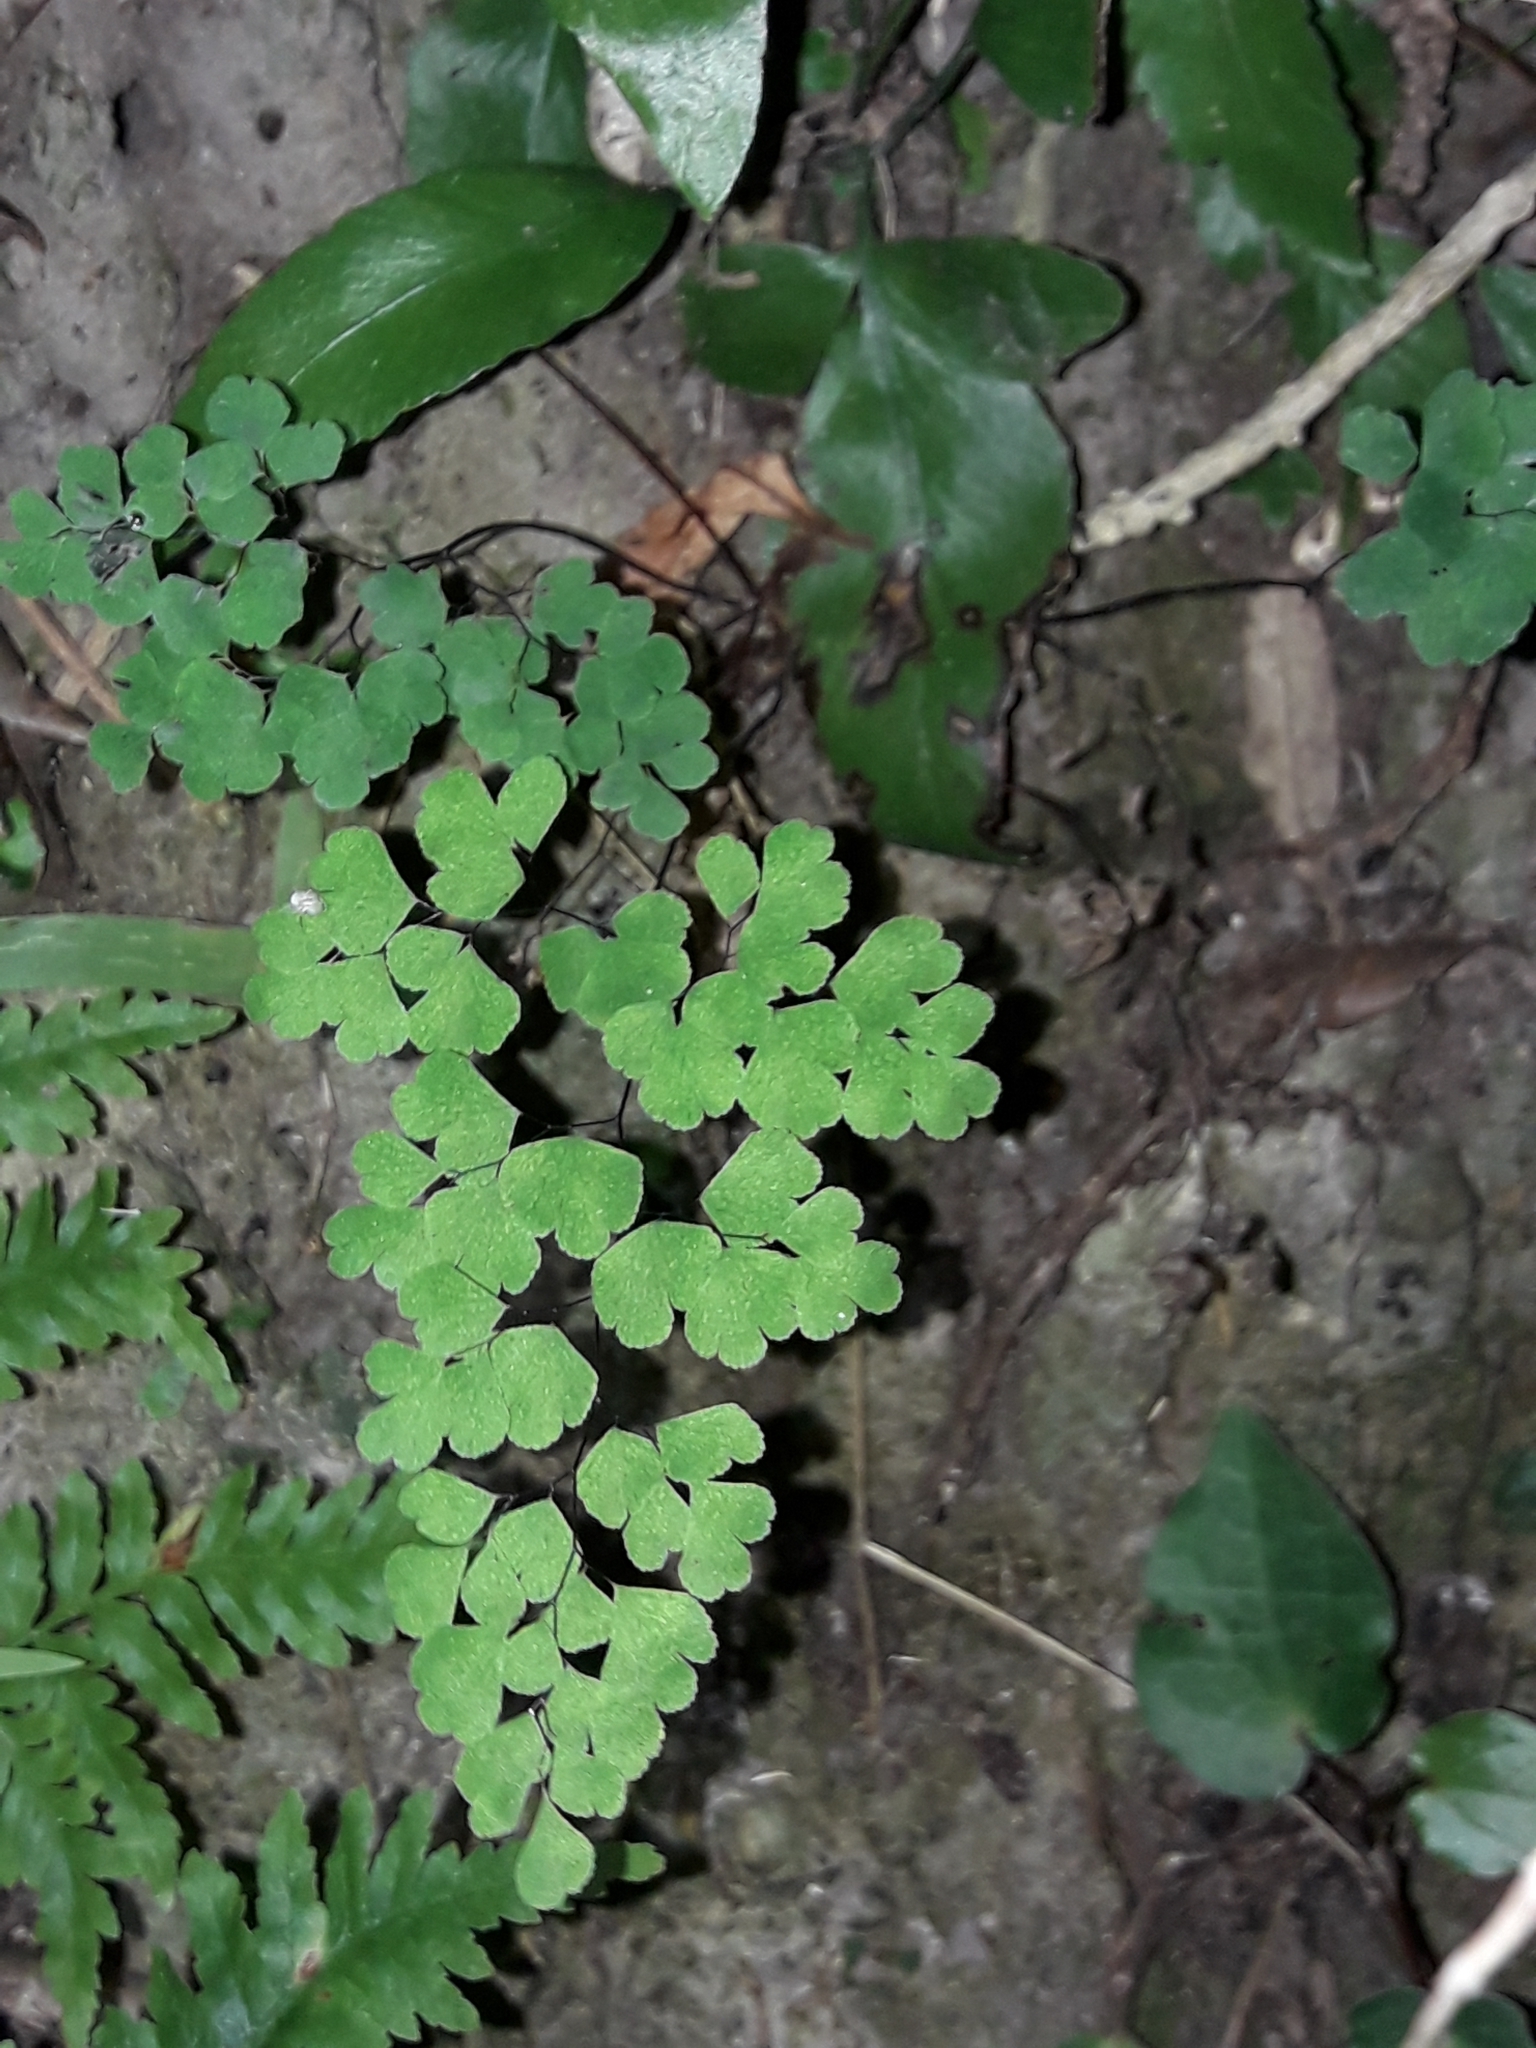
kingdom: Plantae
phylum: Tracheophyta
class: Polypodiopsida
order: Polypodiales
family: Pteridaceae
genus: Adiantum
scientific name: Adiantum raddianum
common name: Delta maidenhair fern
